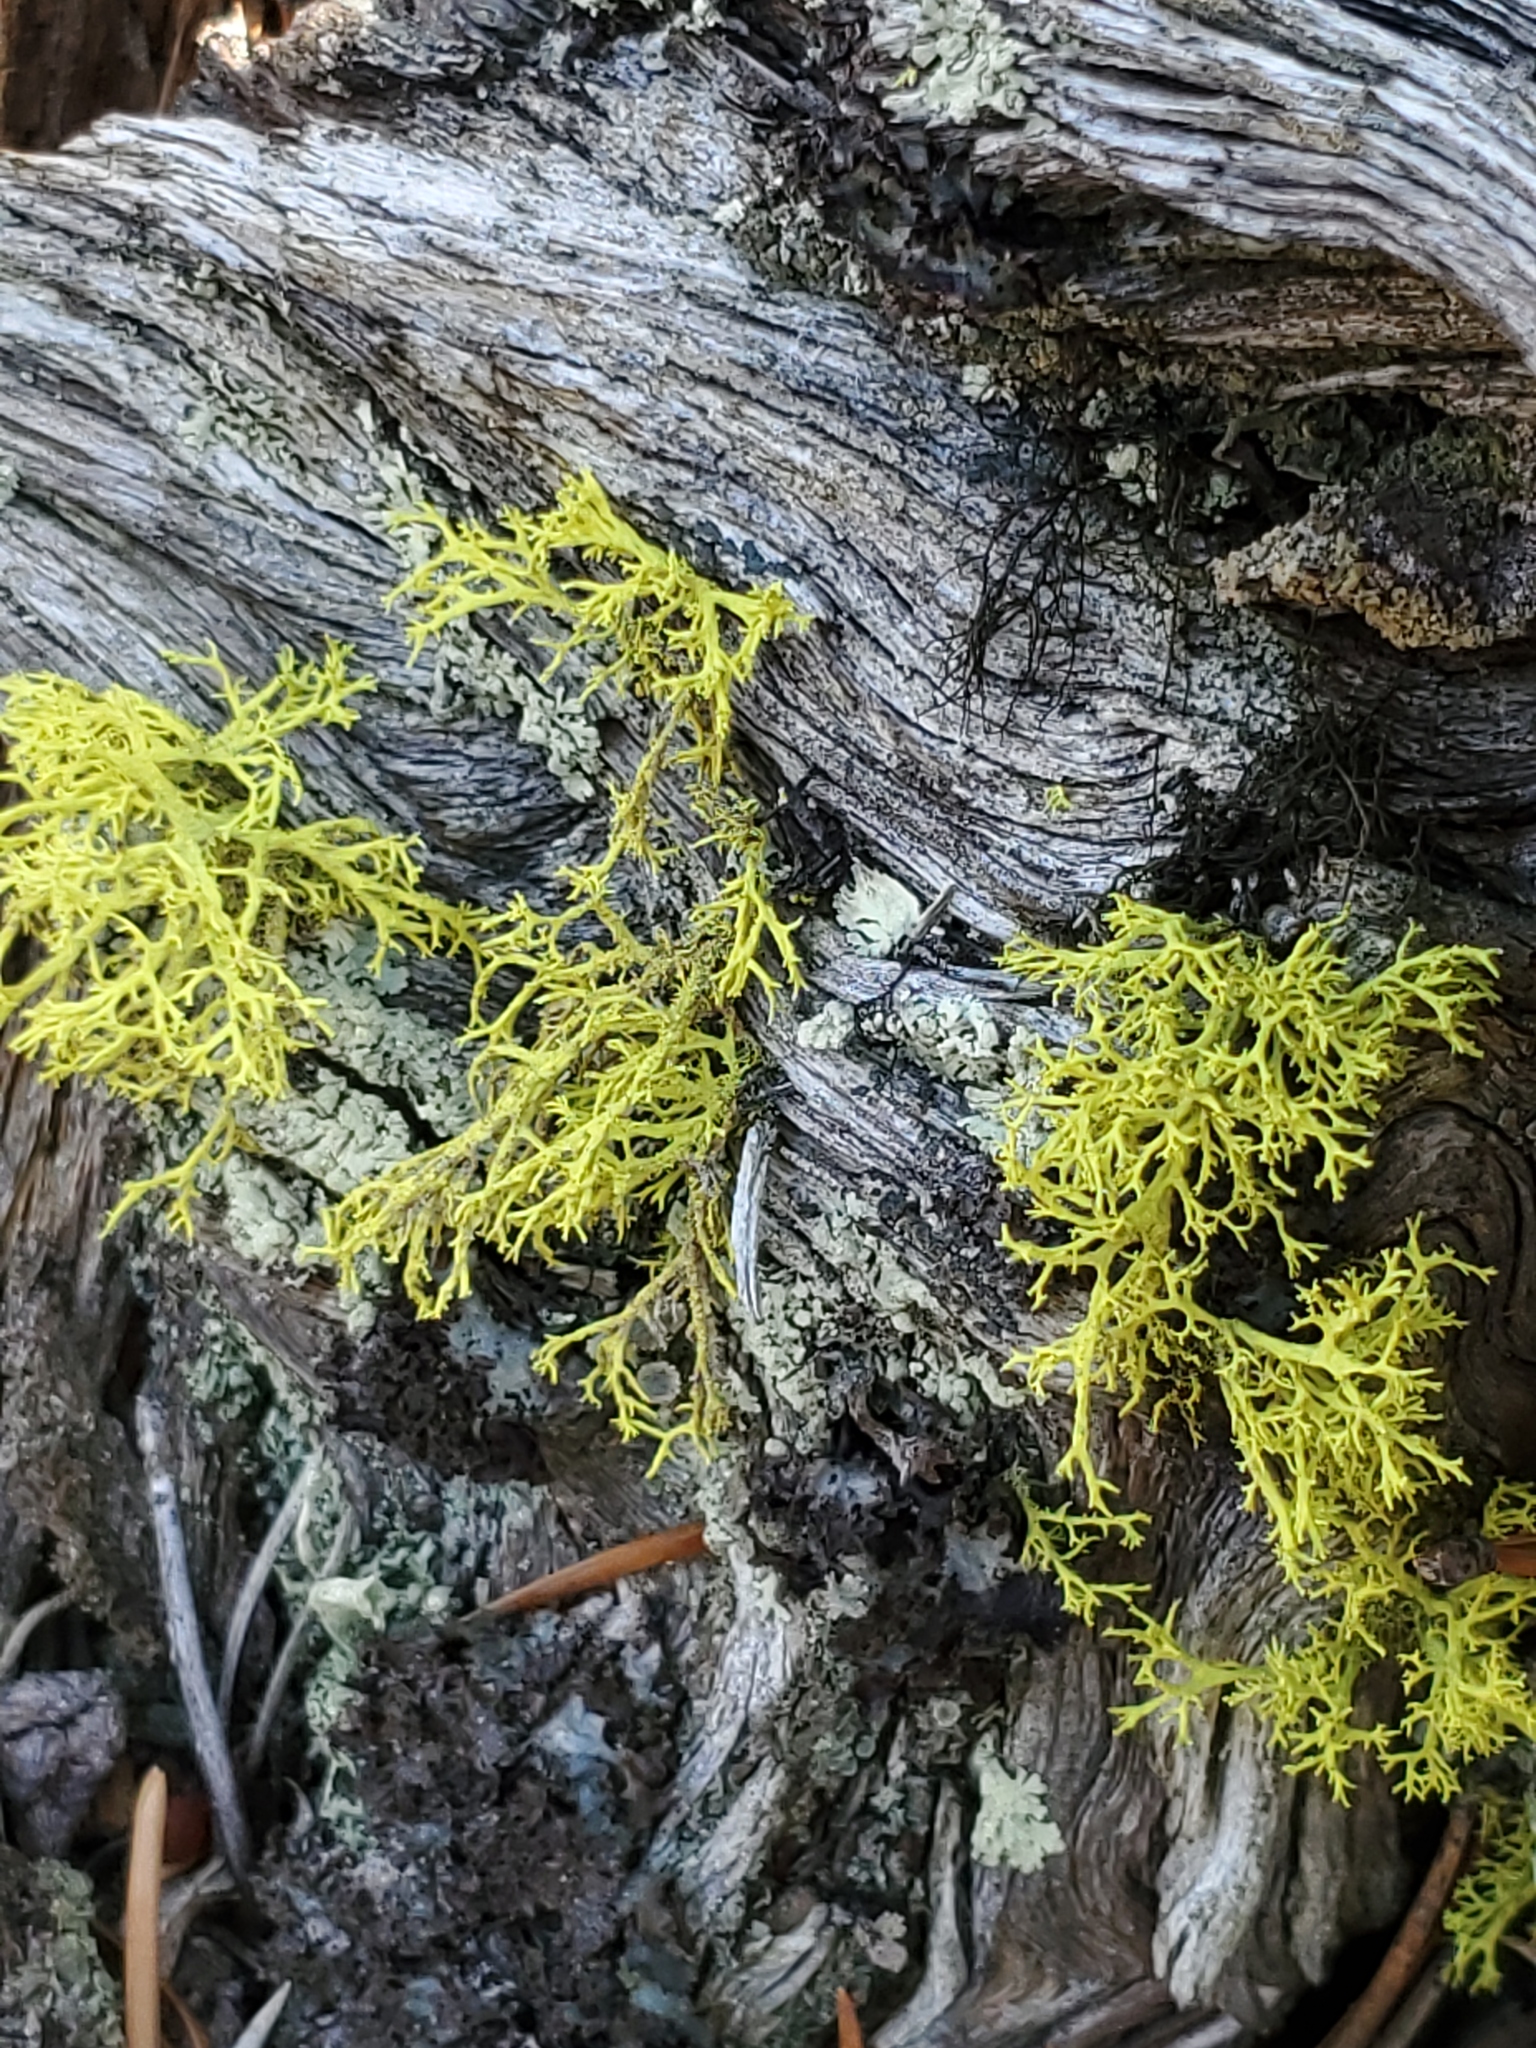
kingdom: Fungi
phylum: Ascomycota
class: Lecanoromycetes
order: Lecanorales
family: Parmeliaceae
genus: Letharia
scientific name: Letharia lupina
